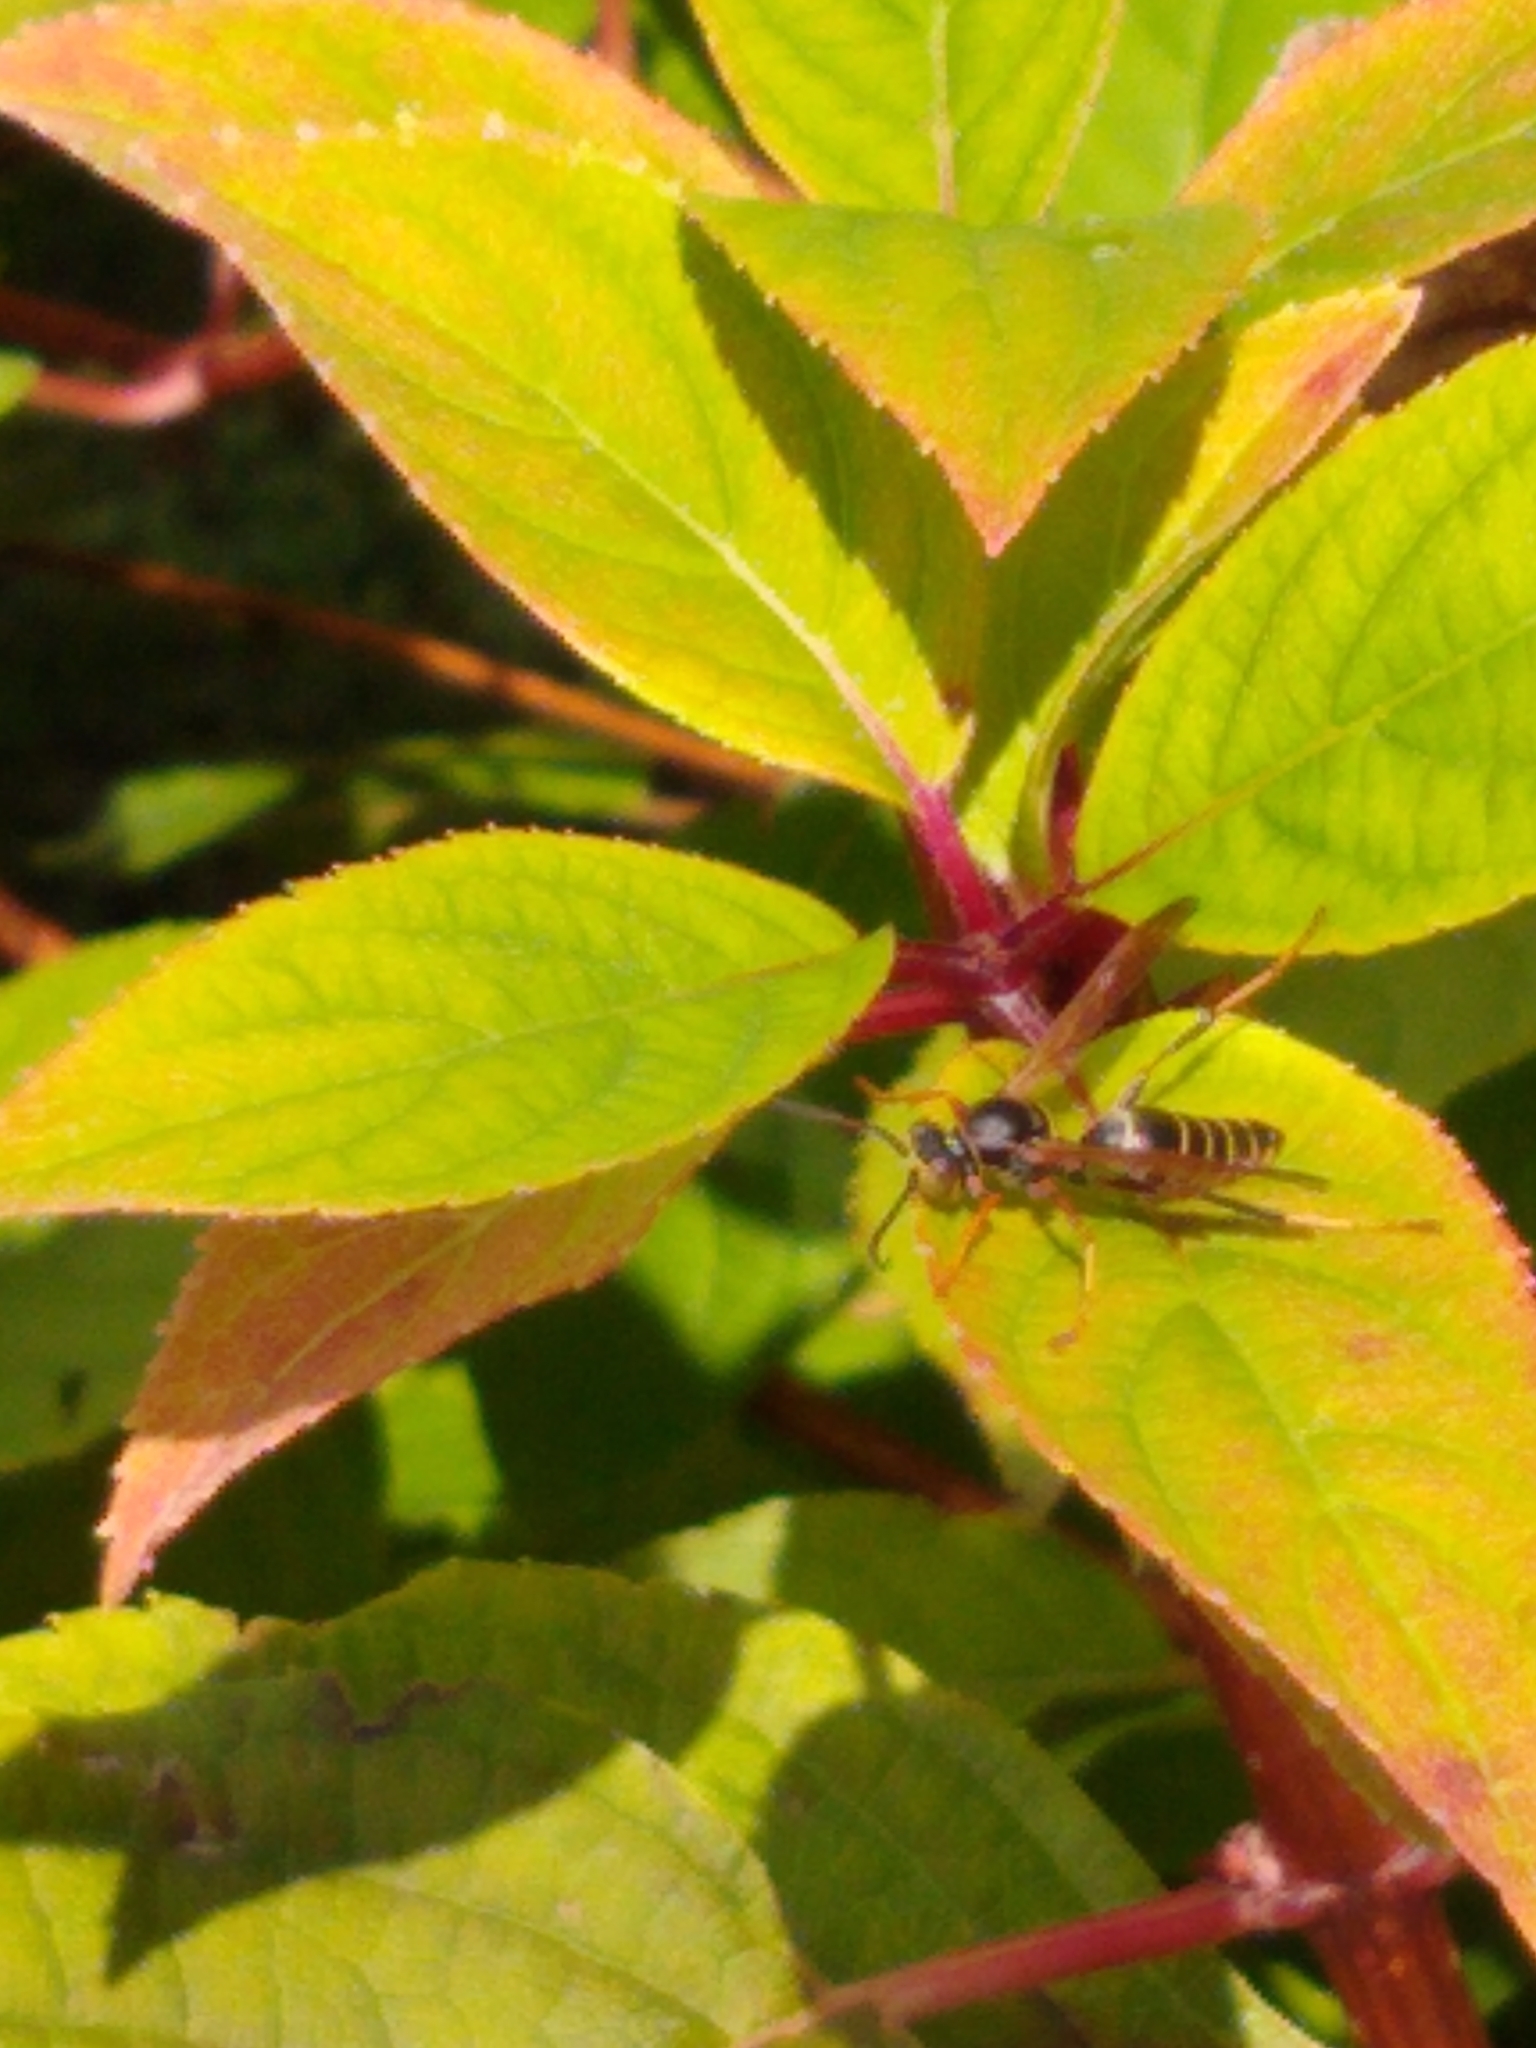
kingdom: Animalia
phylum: Arthropoda
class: Insecta
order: Hymenoptera
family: Eumenidae
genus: Polistes
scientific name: Polistes fuscatus
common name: Dark paper wasp
